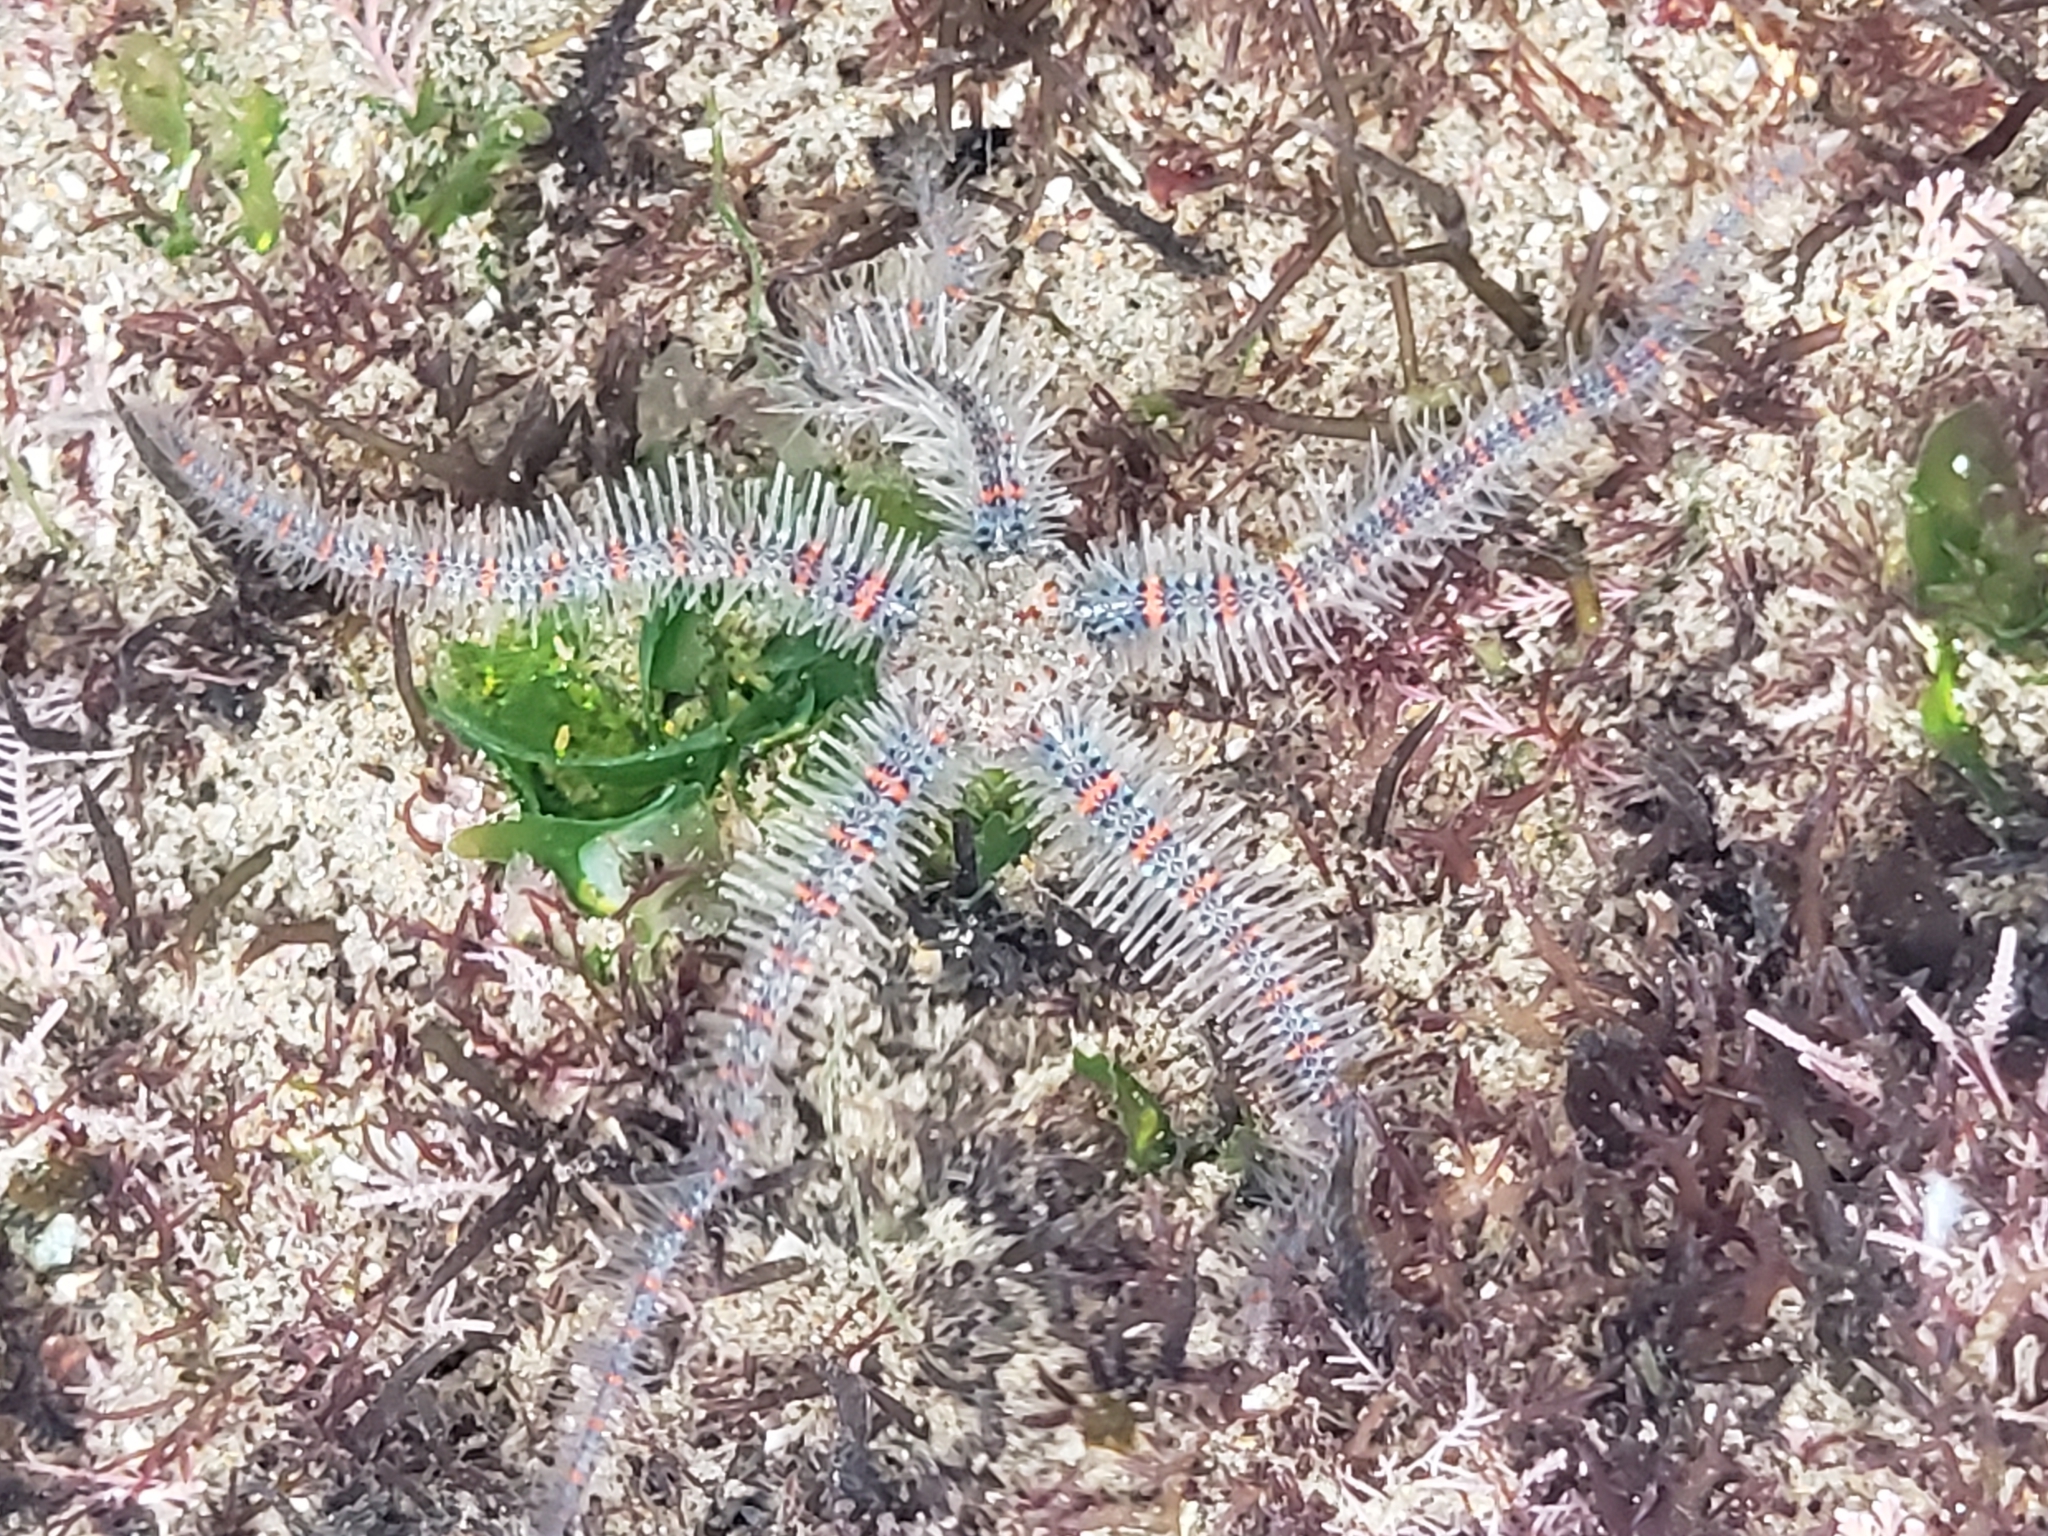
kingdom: Animalia
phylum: Echinodermata
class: Ophiuroidea
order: Amphilepidida
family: Ophiotrichidae
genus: Ophiothrix
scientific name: Ophiothrix spiculata
